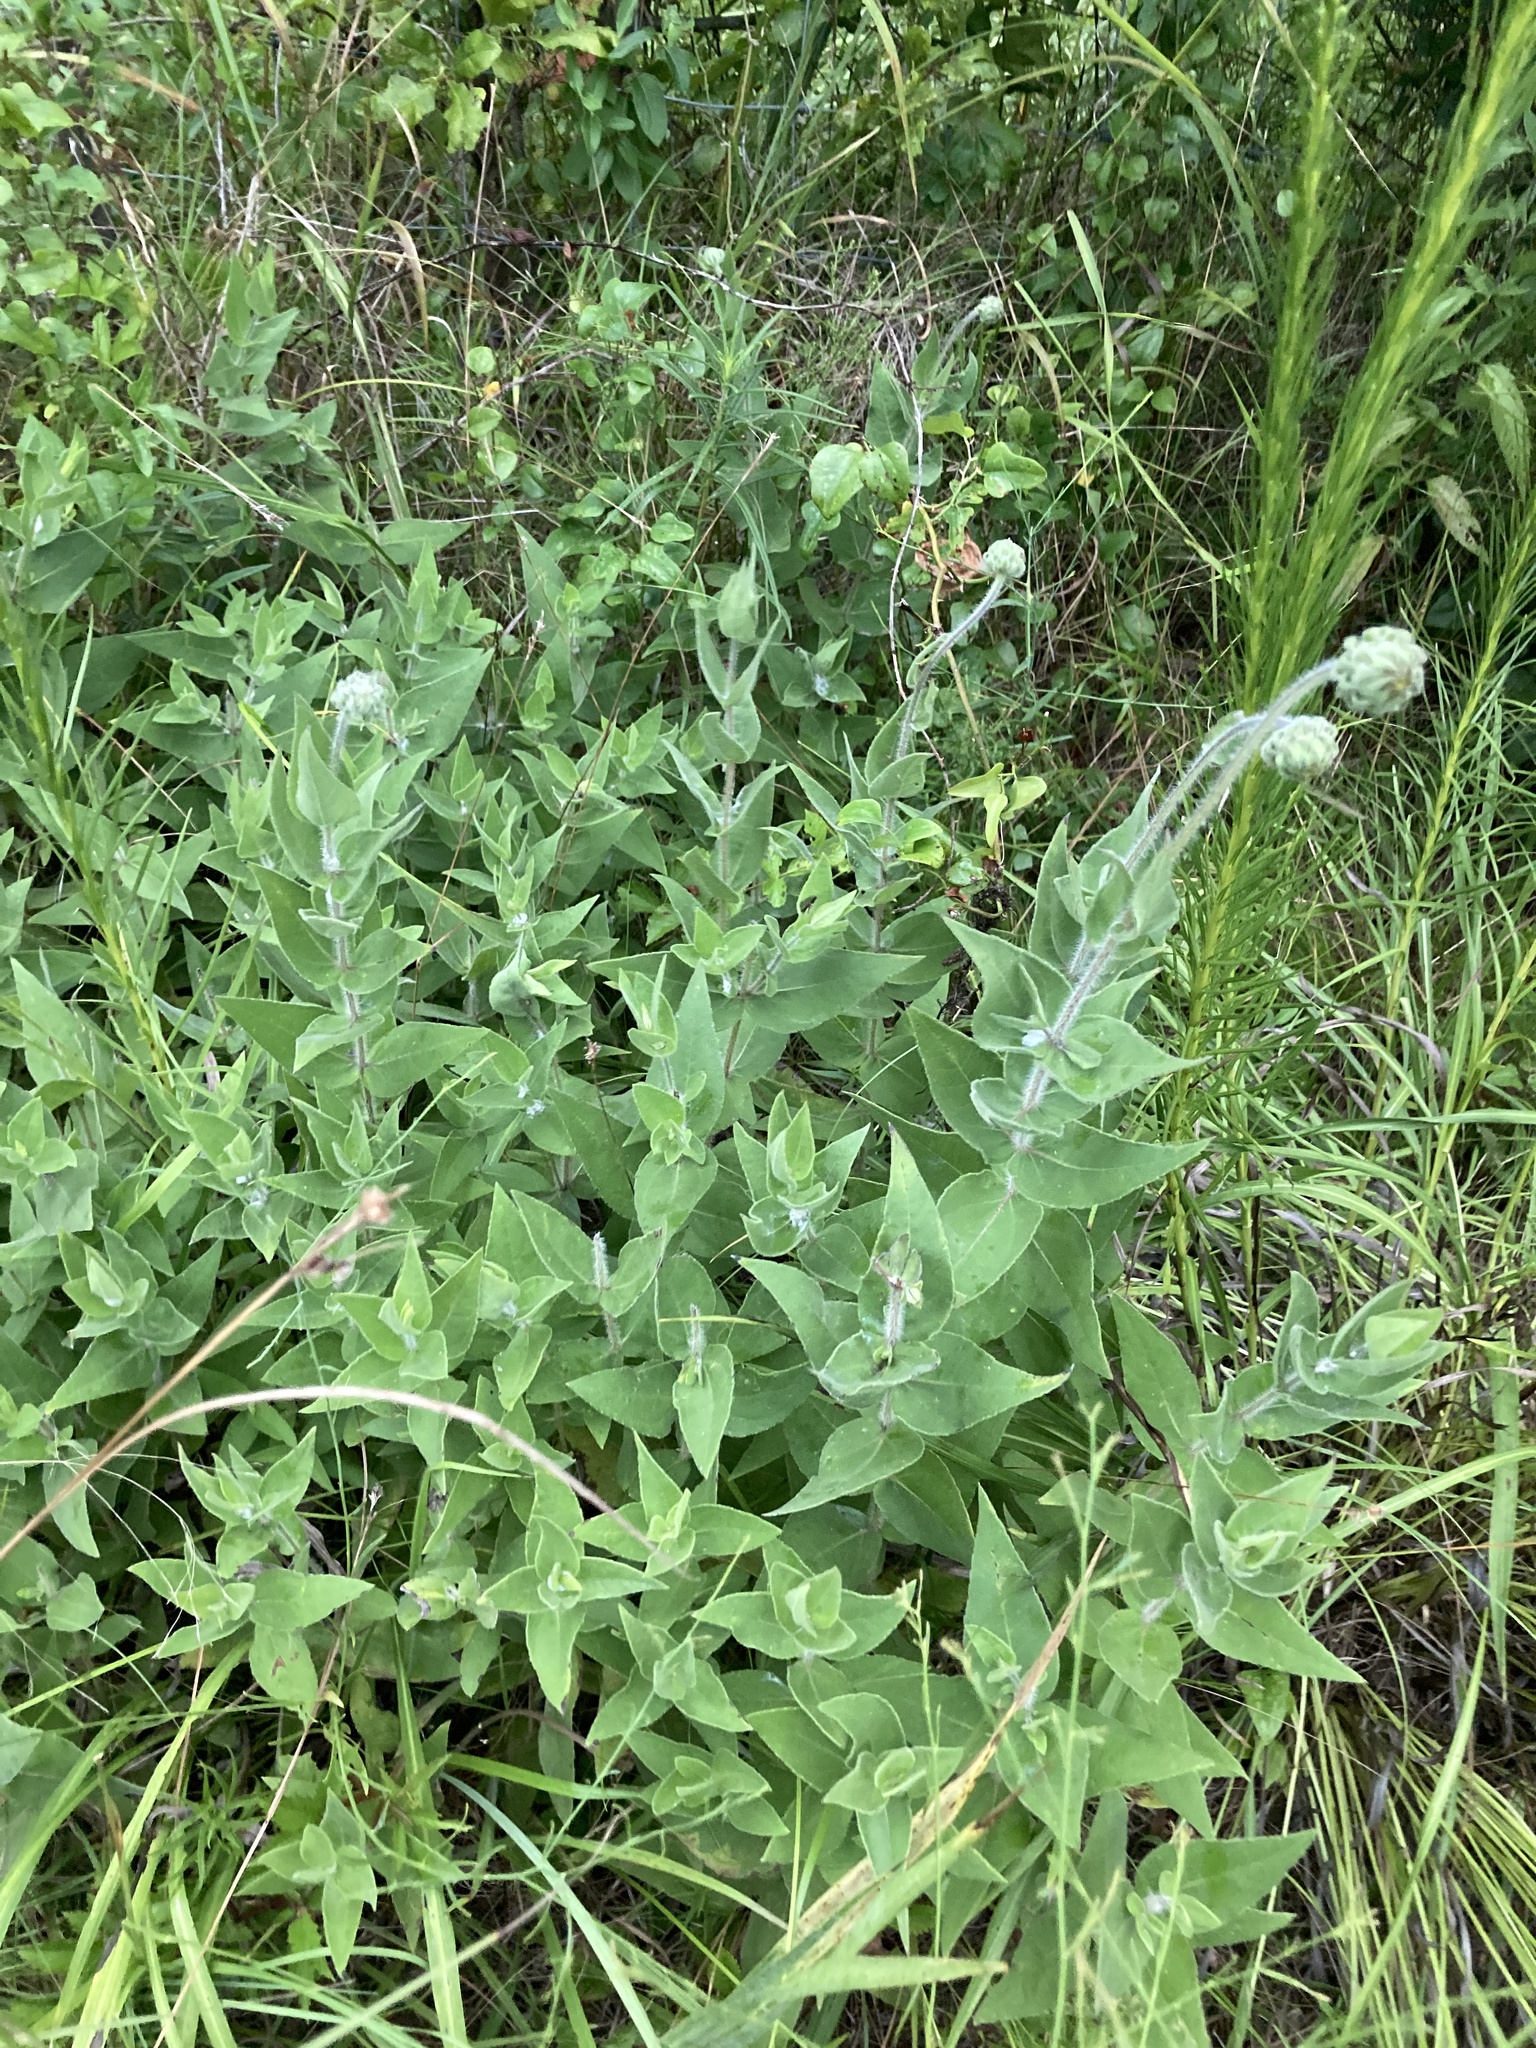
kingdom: Plantae
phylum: Tracheophyta
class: Magnoliopsida
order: Asterales
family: Asteraceae
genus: Helianthus
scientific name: Helianthus mollis
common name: Ashy sunflower
